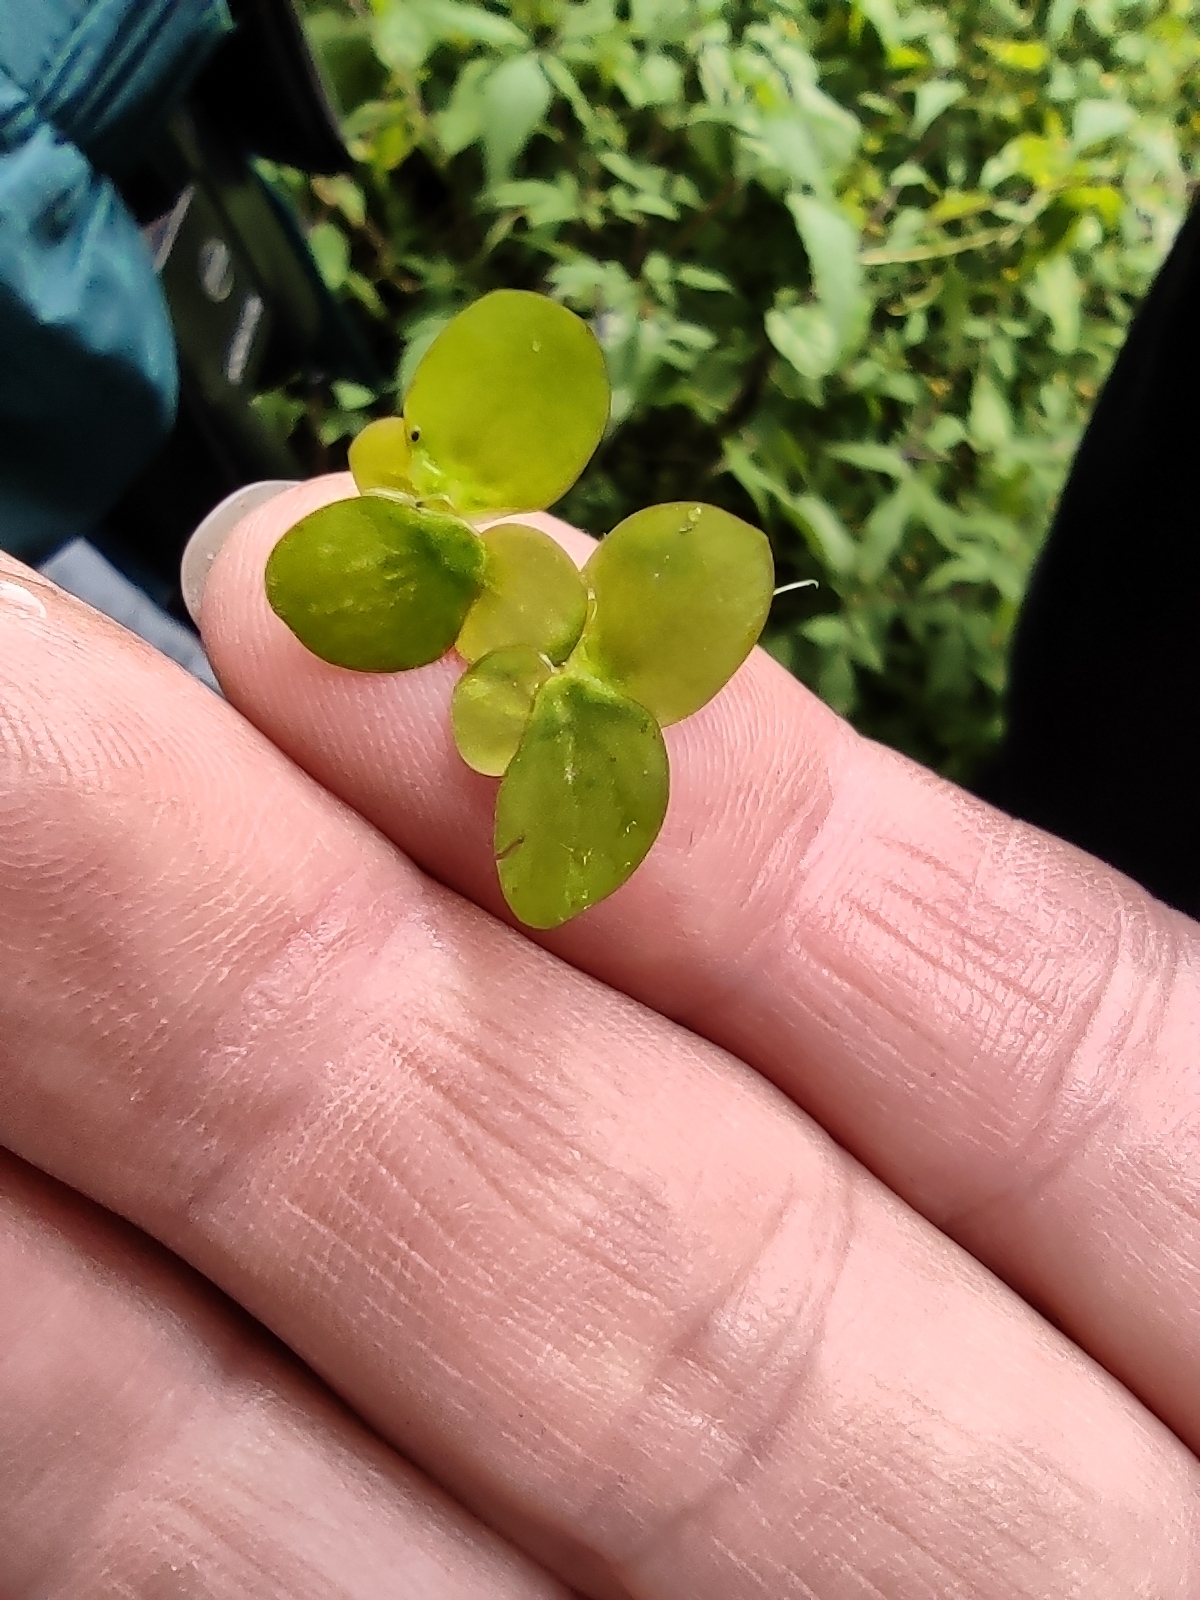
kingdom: Plantae
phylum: Tracheophyta
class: Liliopsida
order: Alismatales
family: Araceae
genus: Spirodela
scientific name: Spirodela polyrhiza
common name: Great duckweed
